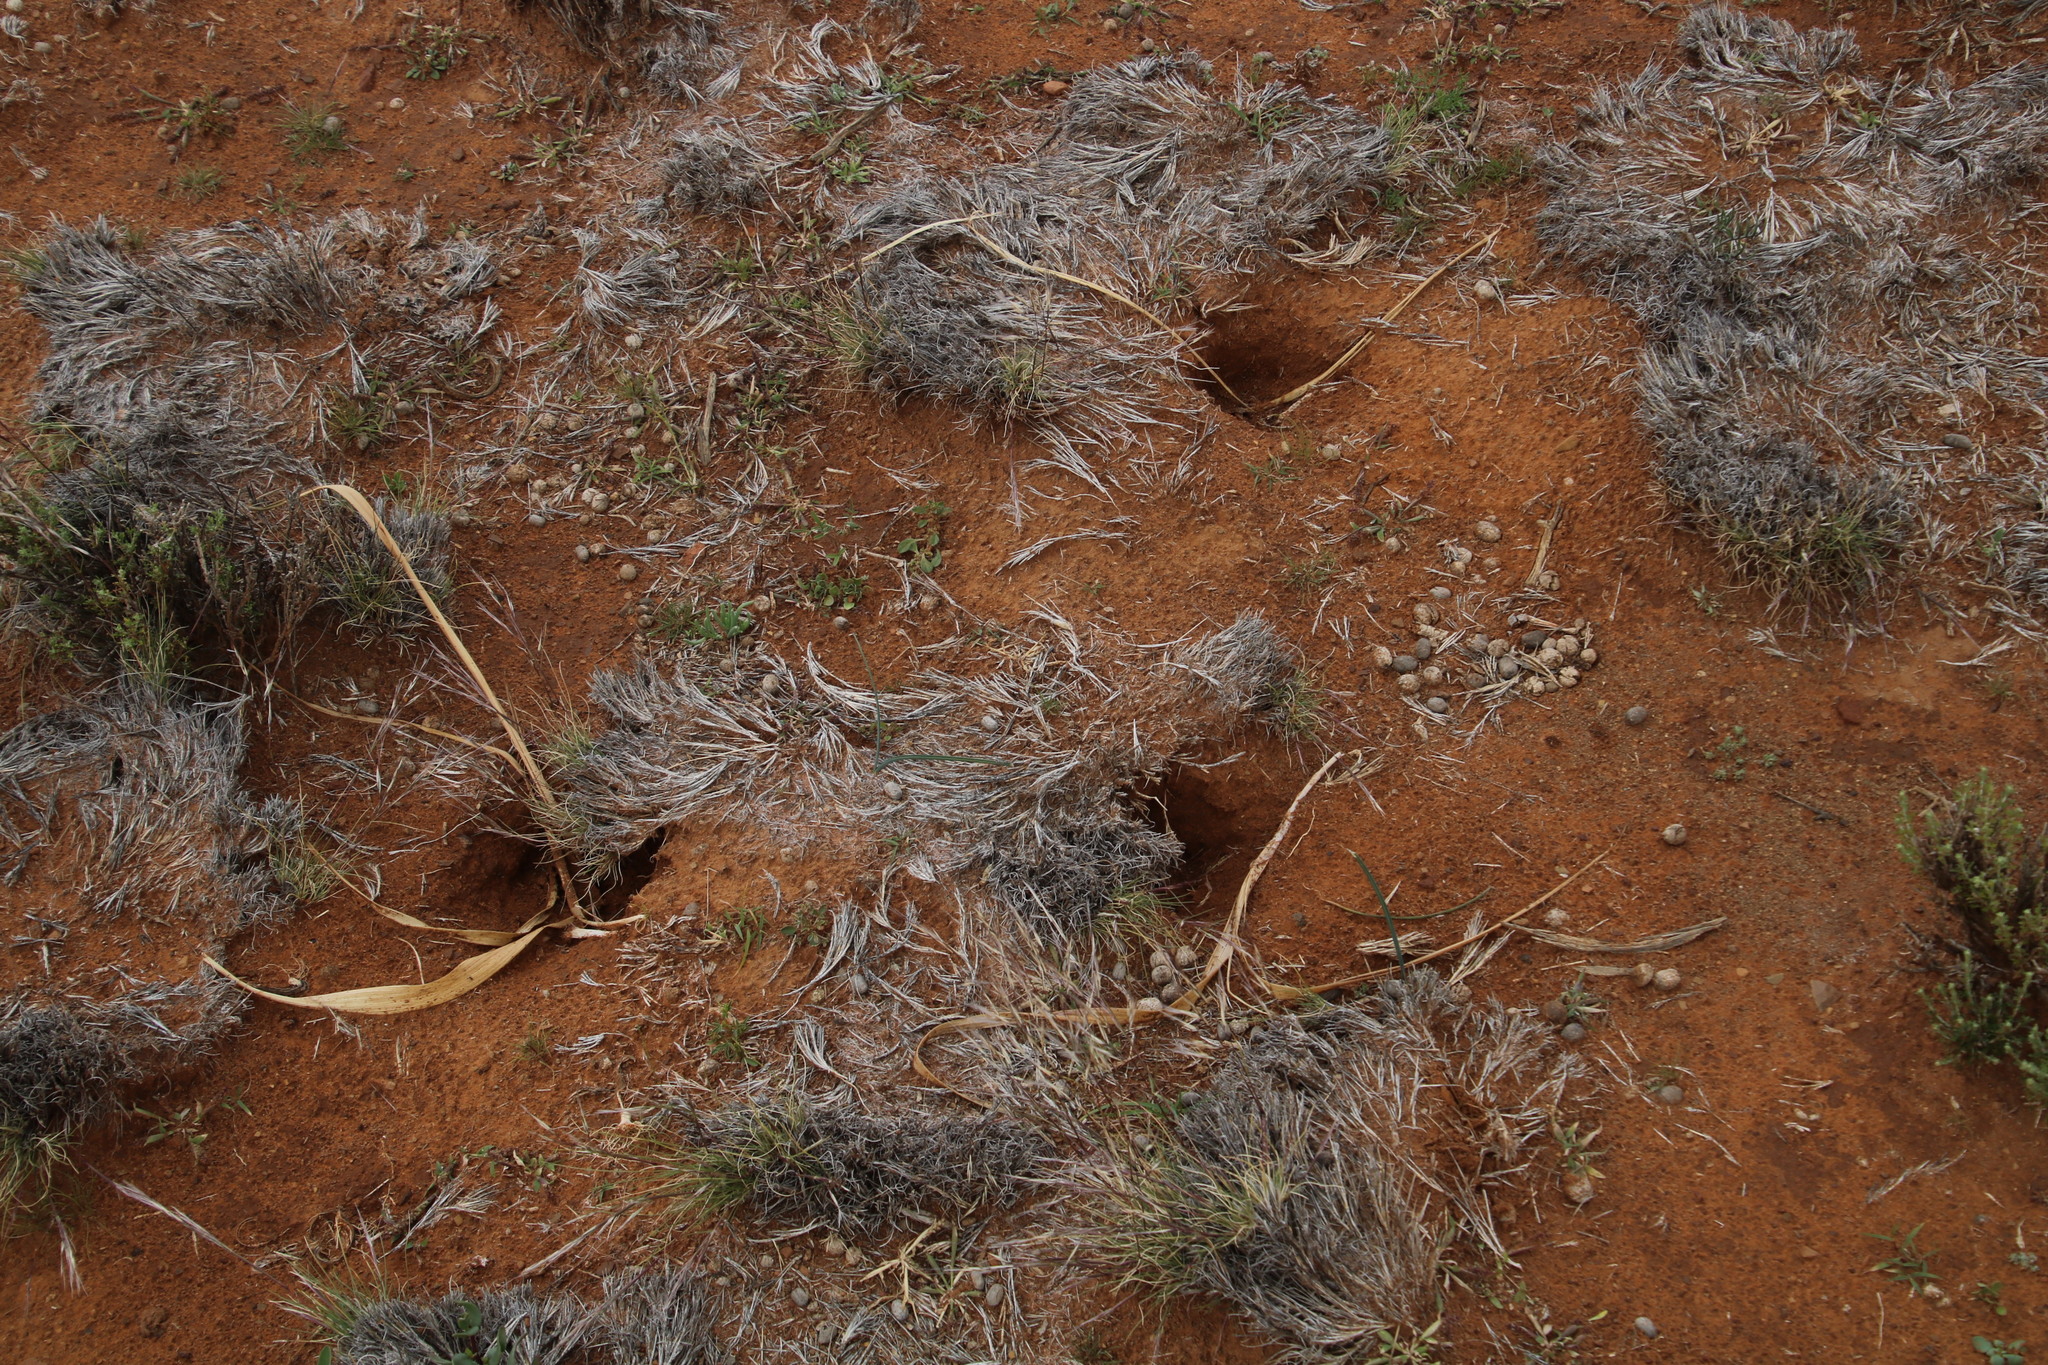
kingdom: Animalia
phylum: Chordata
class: Mammalia
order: Rodentia
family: Sciuridae
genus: Xerus
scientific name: Xerus inauris
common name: South african ground squirrel
